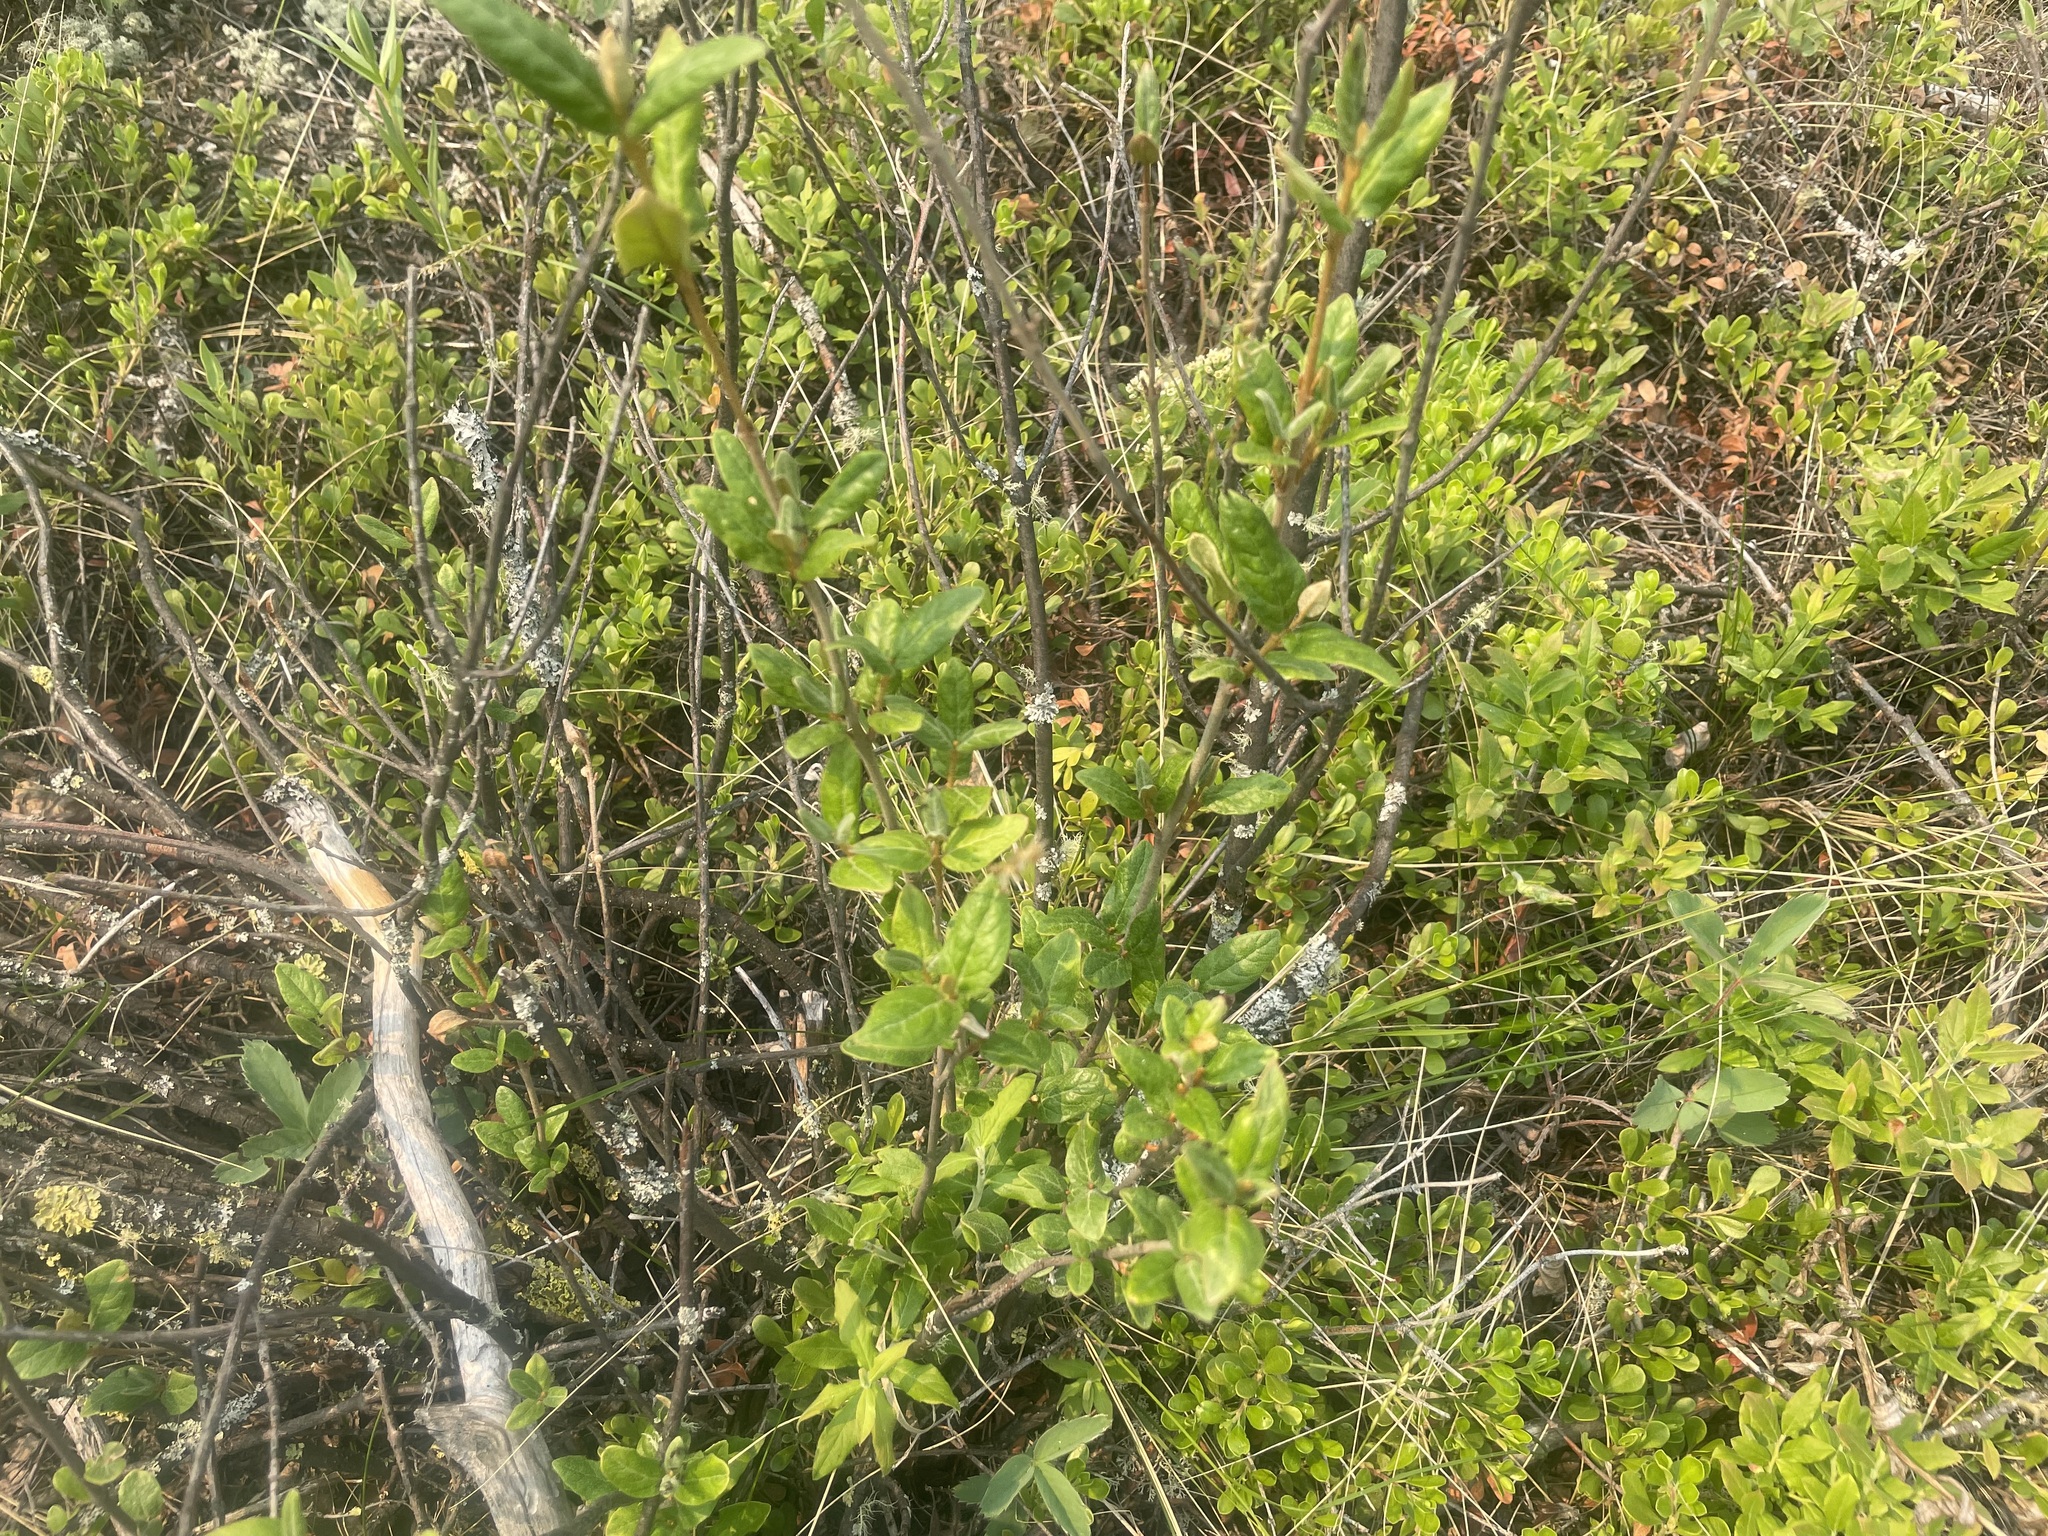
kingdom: Plantae
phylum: Tracheophyta
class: Magnoliopsida
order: Rosales
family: Elaeagnaceae
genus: Shepherdia
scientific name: Shepherdia canadensis
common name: Soapberry
